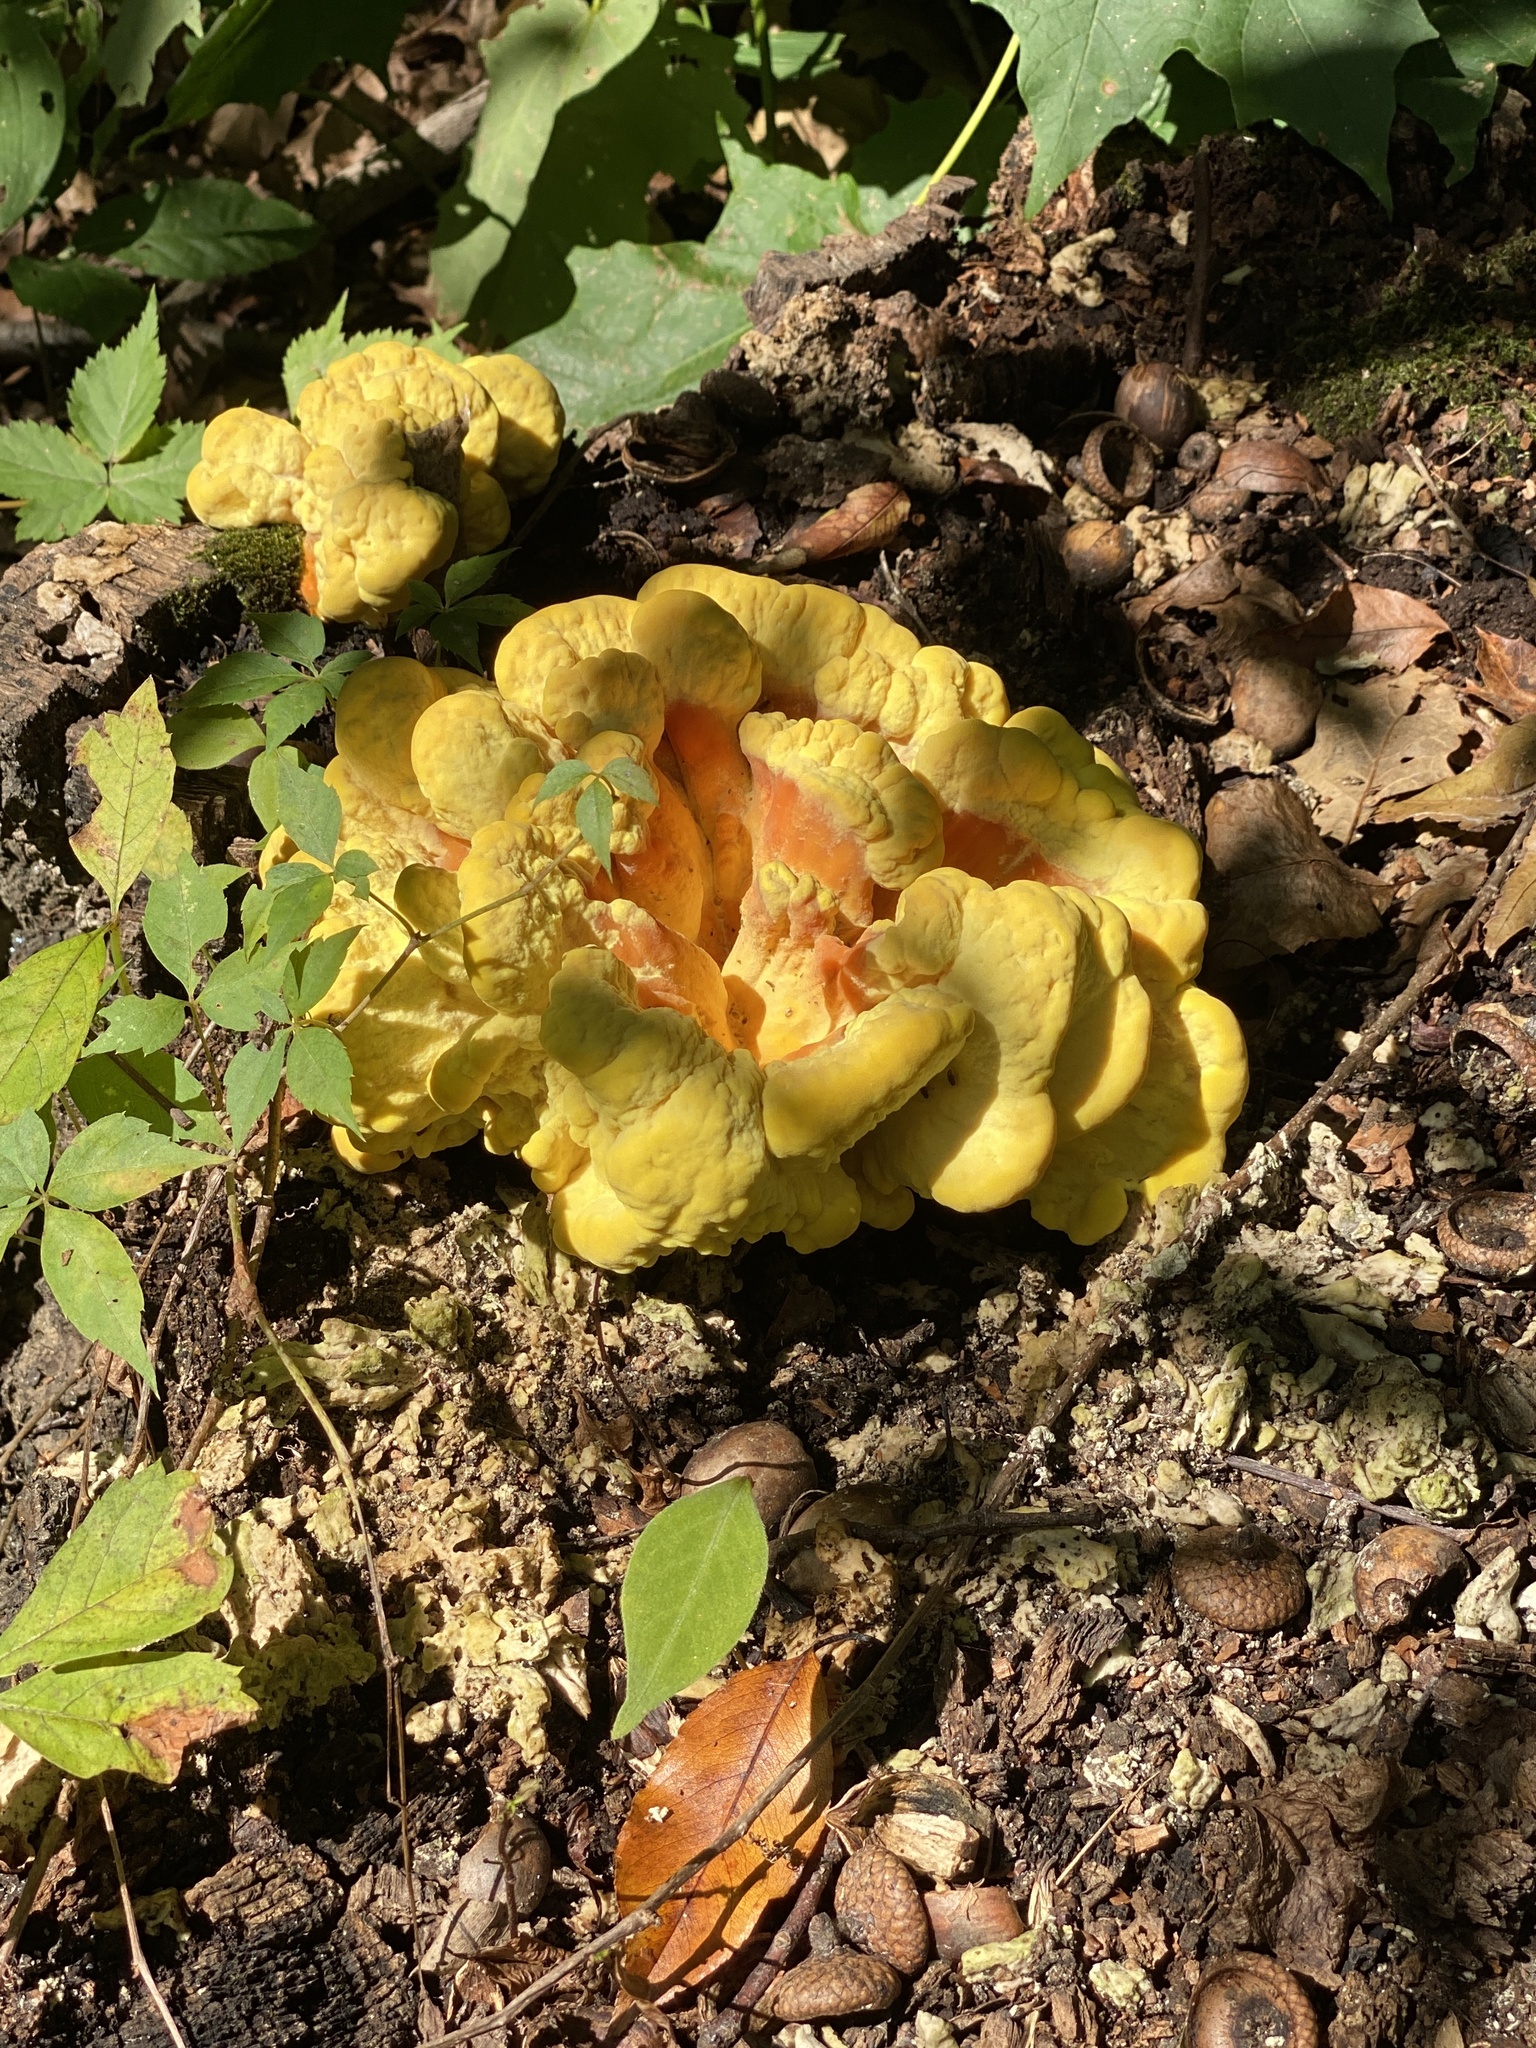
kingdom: Fungi
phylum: Basidiomycota
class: Agaricomycetes
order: Polyporales
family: Laetiporaceae
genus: Laetiporus
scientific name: Laetiporus sulphureus
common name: Chicken of the woods
